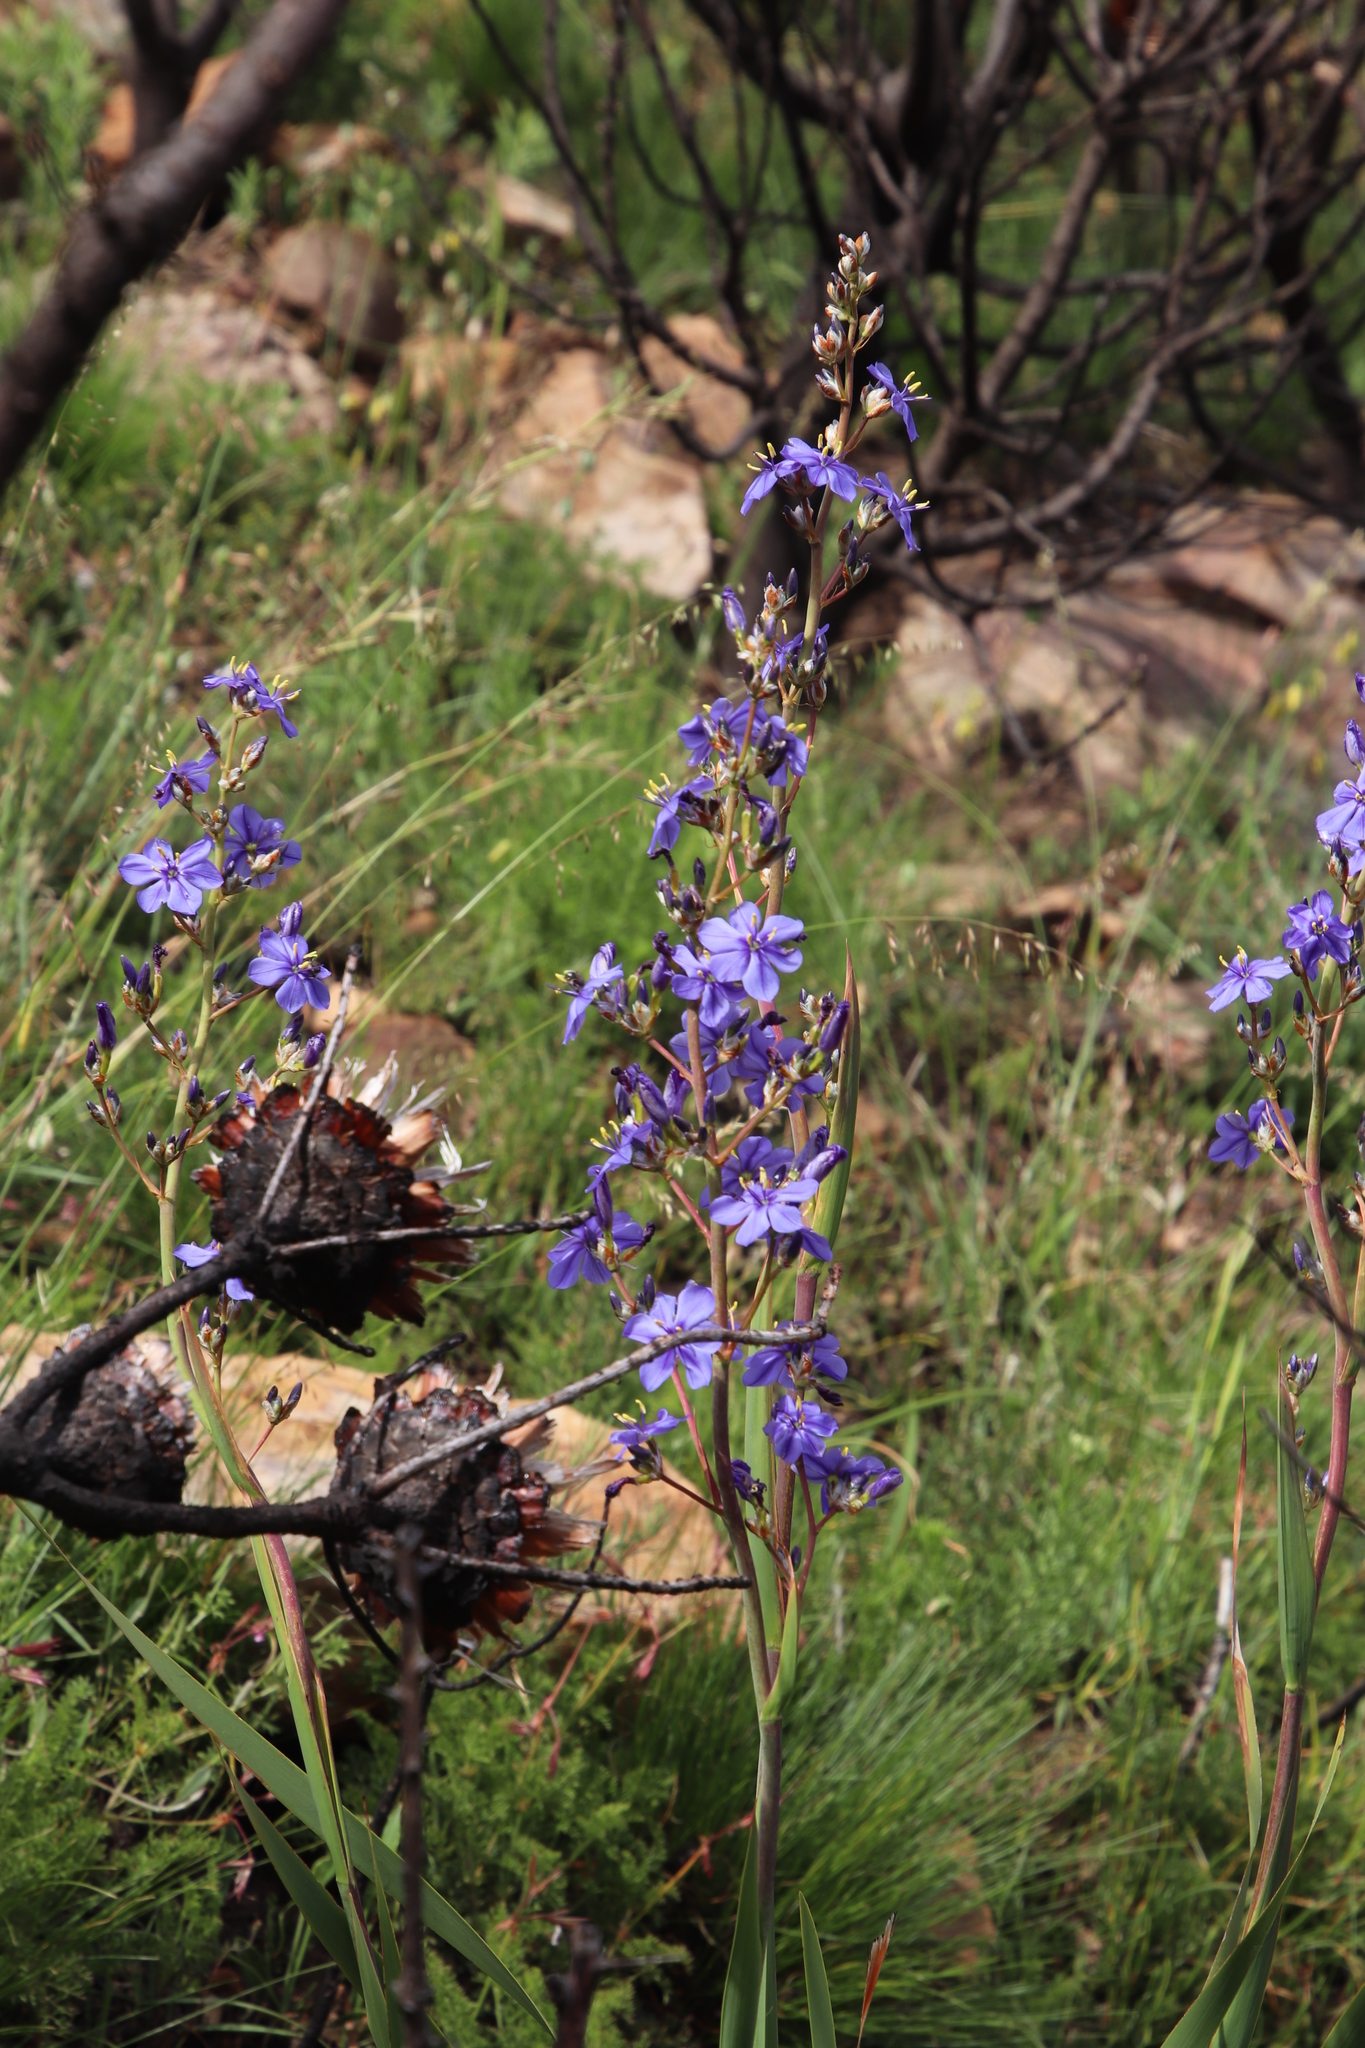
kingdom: Plantae
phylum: Tracheophyta
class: Liliopsida
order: Asparagales
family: Iridaceae
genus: Aristea
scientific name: Aristea bakeri
